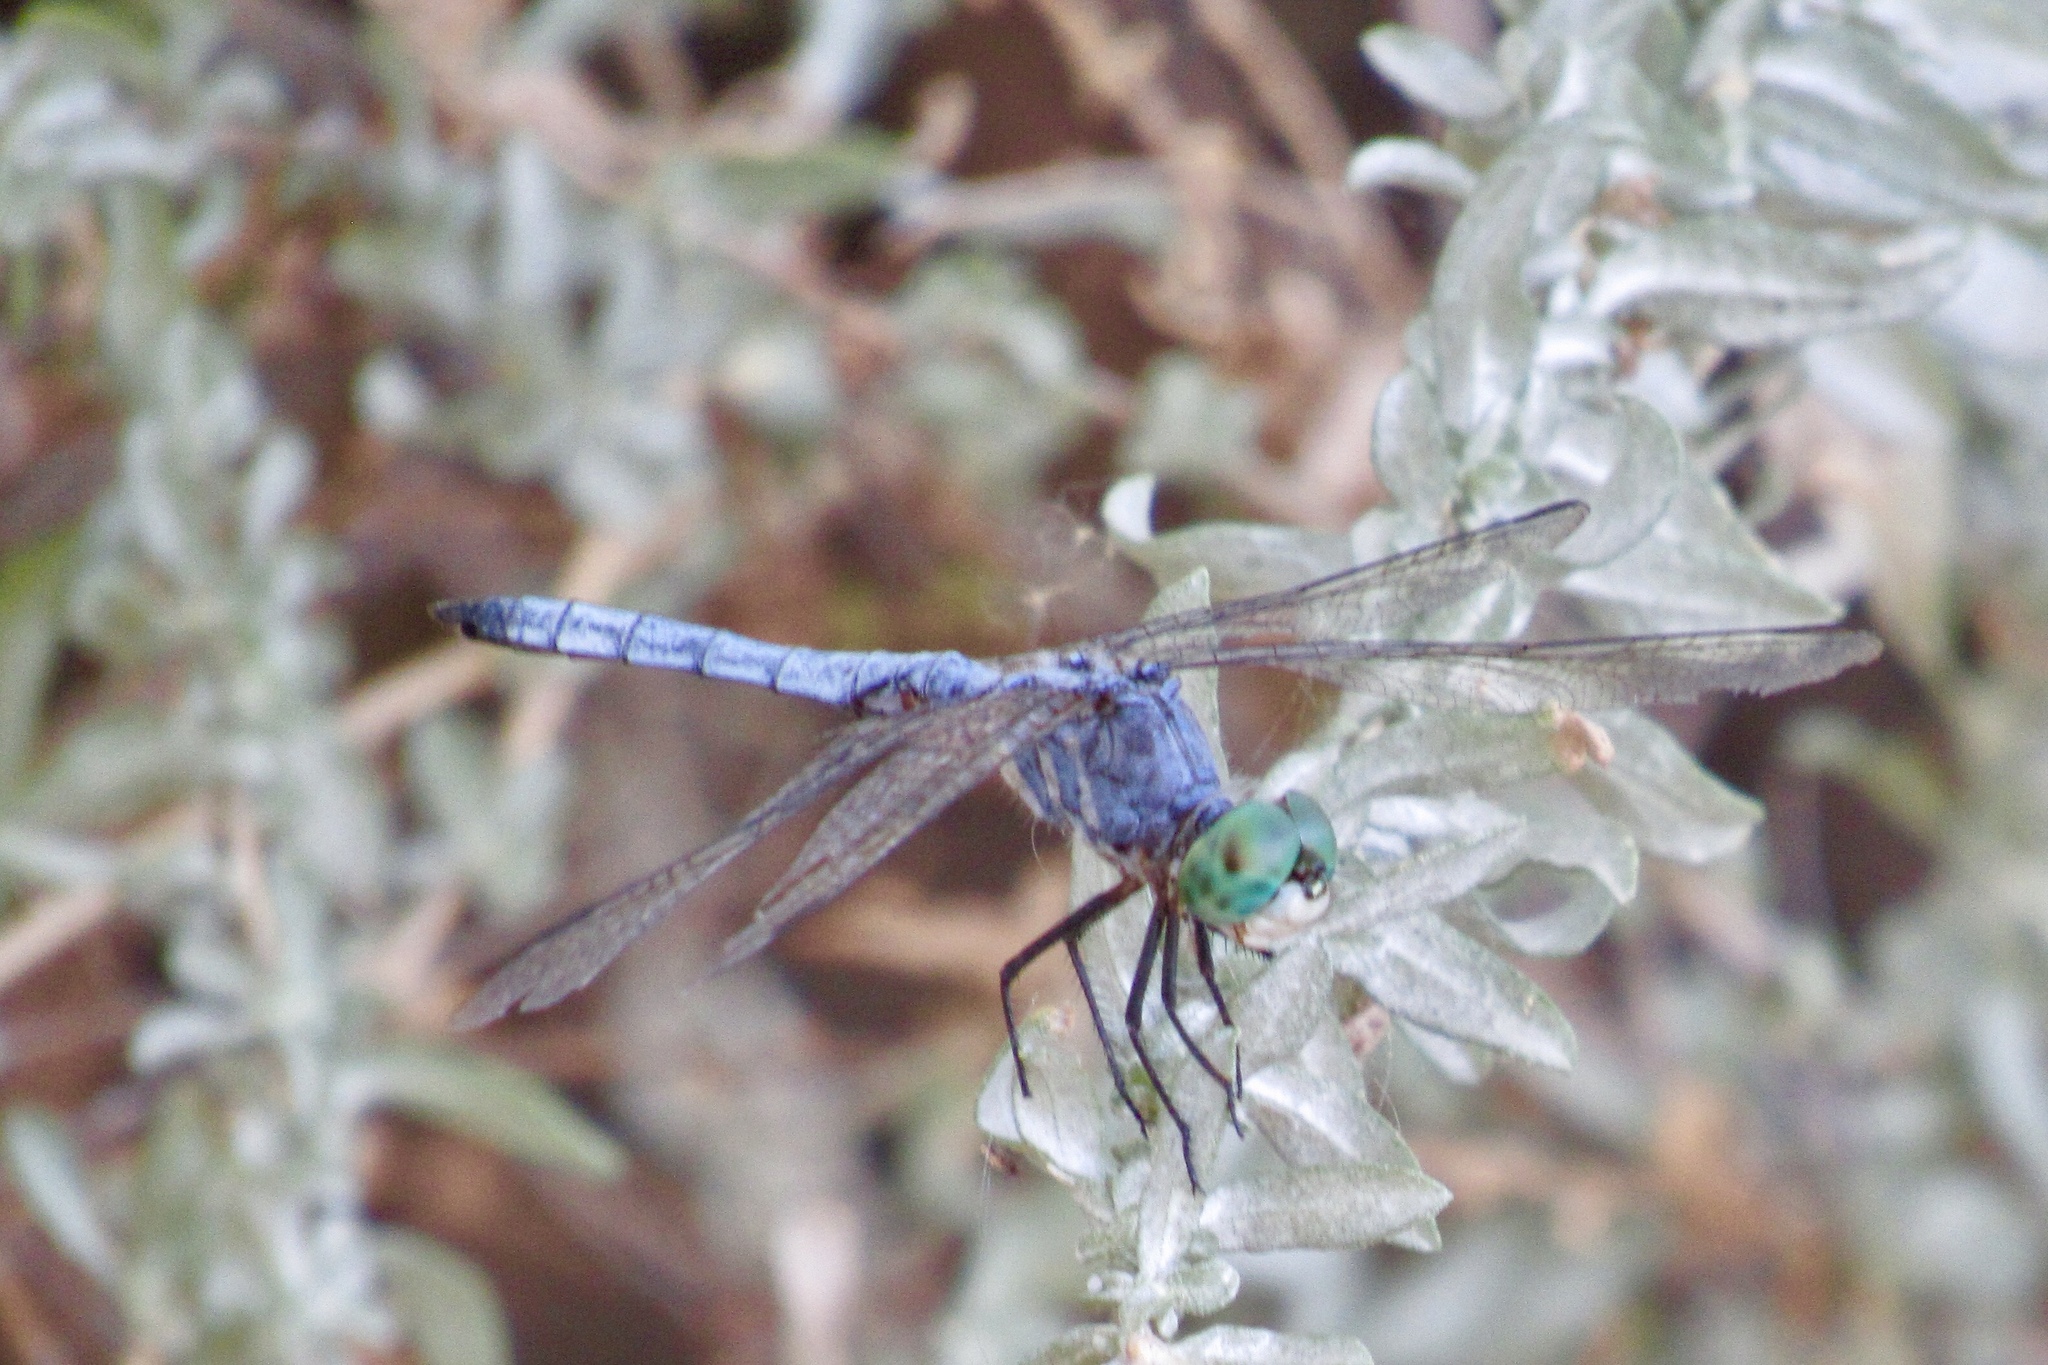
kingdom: Animalia
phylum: Arthropoda
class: Insecta
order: Odonata
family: Libellulidae
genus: Pachydiplax
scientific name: Pachydiplax longipennis
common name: Blue dasher
